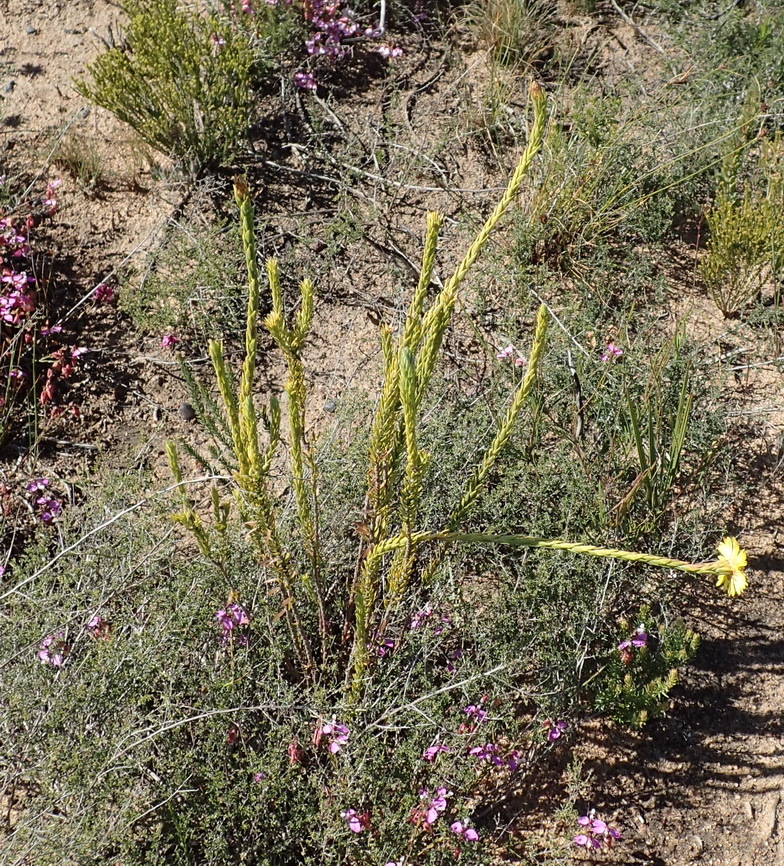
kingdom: Plantae
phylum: Tracheophyta
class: Magnoliopsida
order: Asterales
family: Asteraceae
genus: Oedera
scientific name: Oedera calycina
